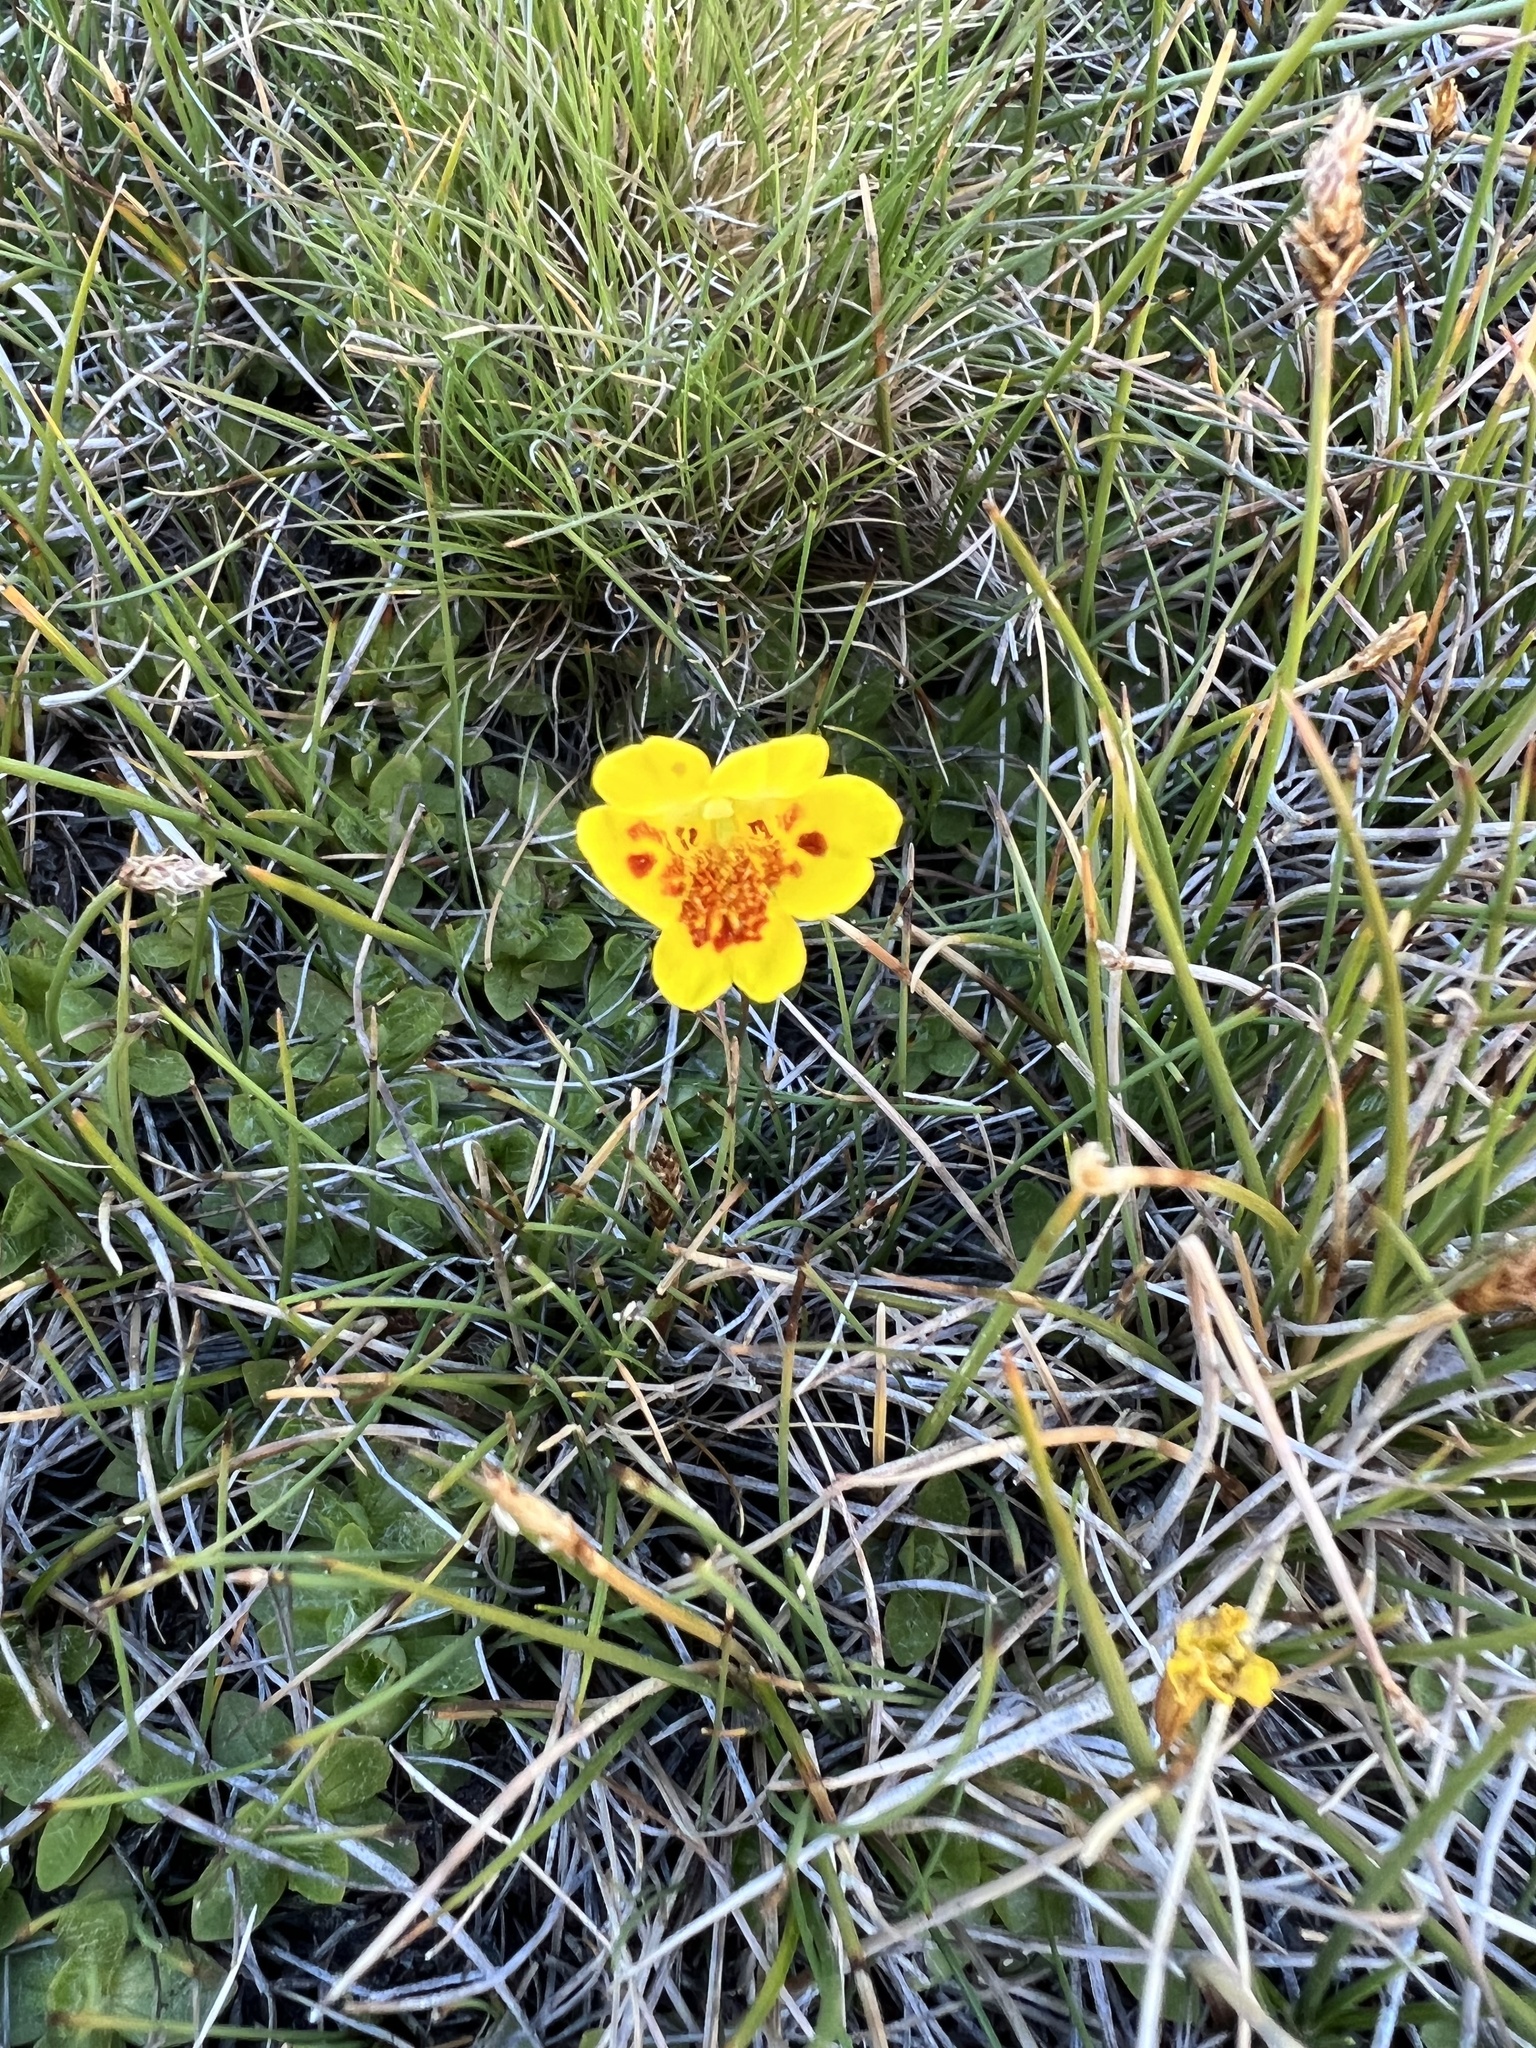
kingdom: Plantae
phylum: Tracheophyta
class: Magnoliopsida
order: Lamiales
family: Phrymaceae
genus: Erythranthe
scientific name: Erythranthe primuloides
